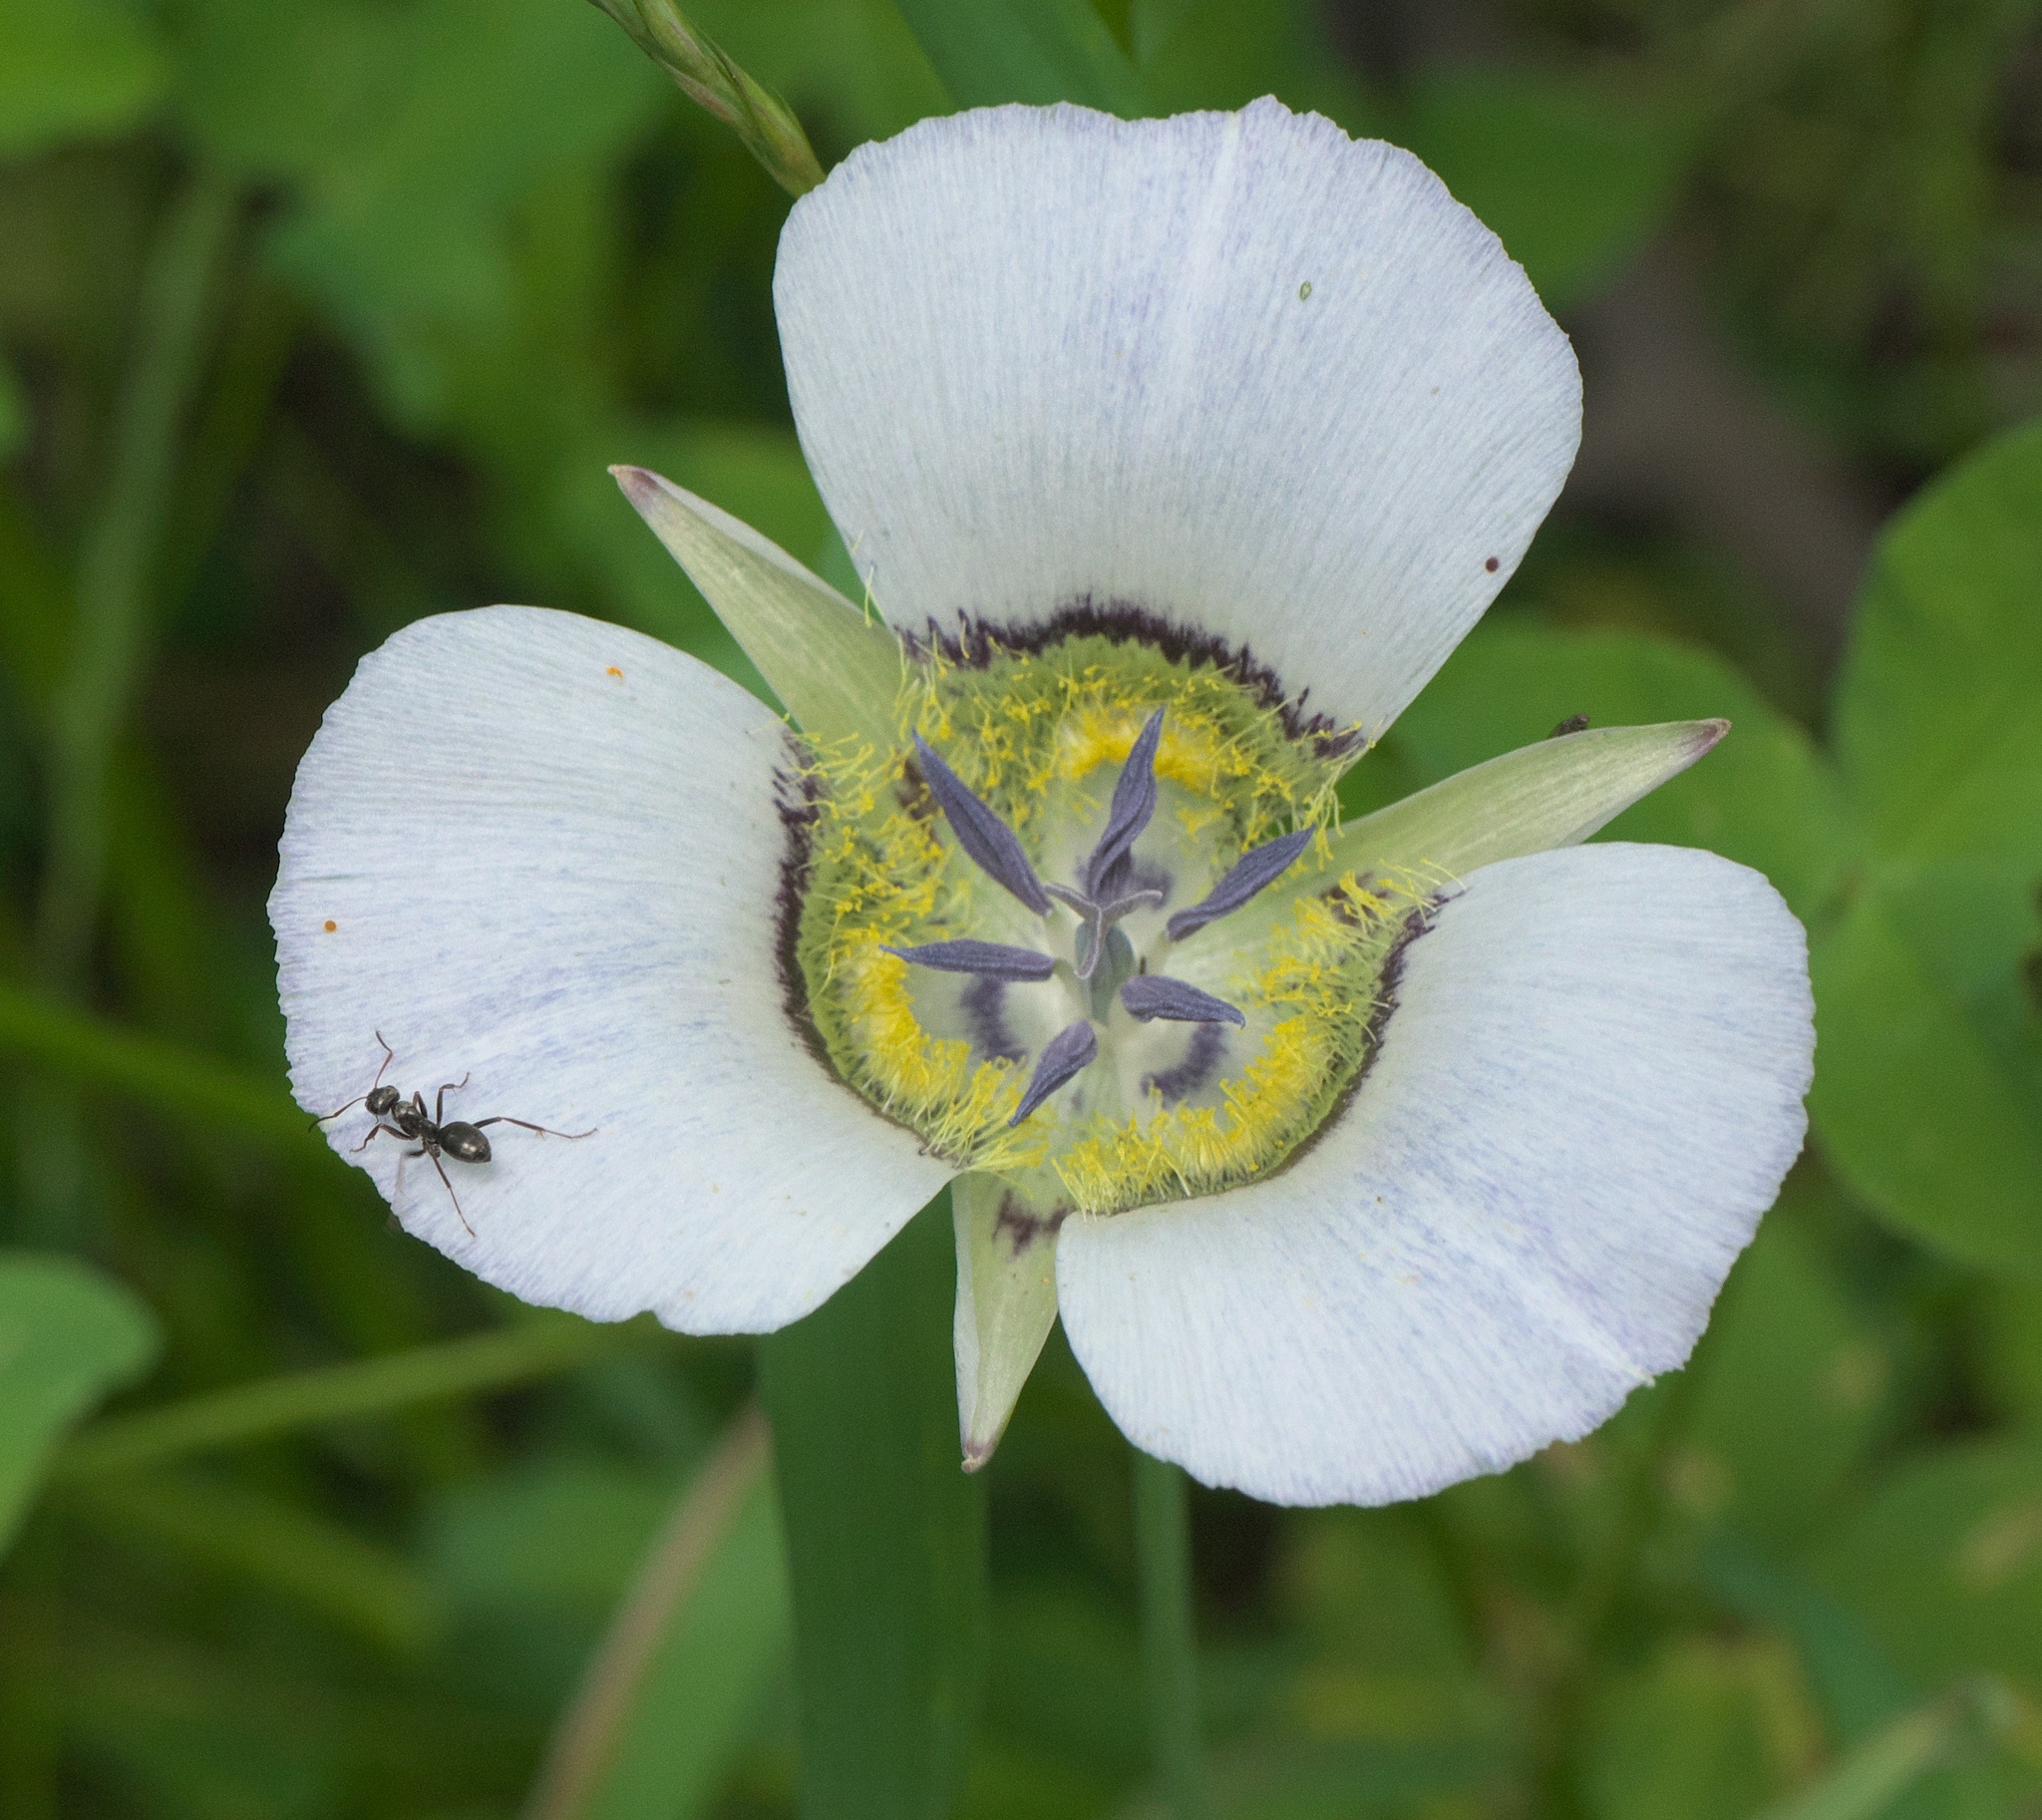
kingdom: Plantae
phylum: Tracheophyta
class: Liliopsida
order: Liliales
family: Liliaceae
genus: Calochortus
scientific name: Calochortus gunnisonii
